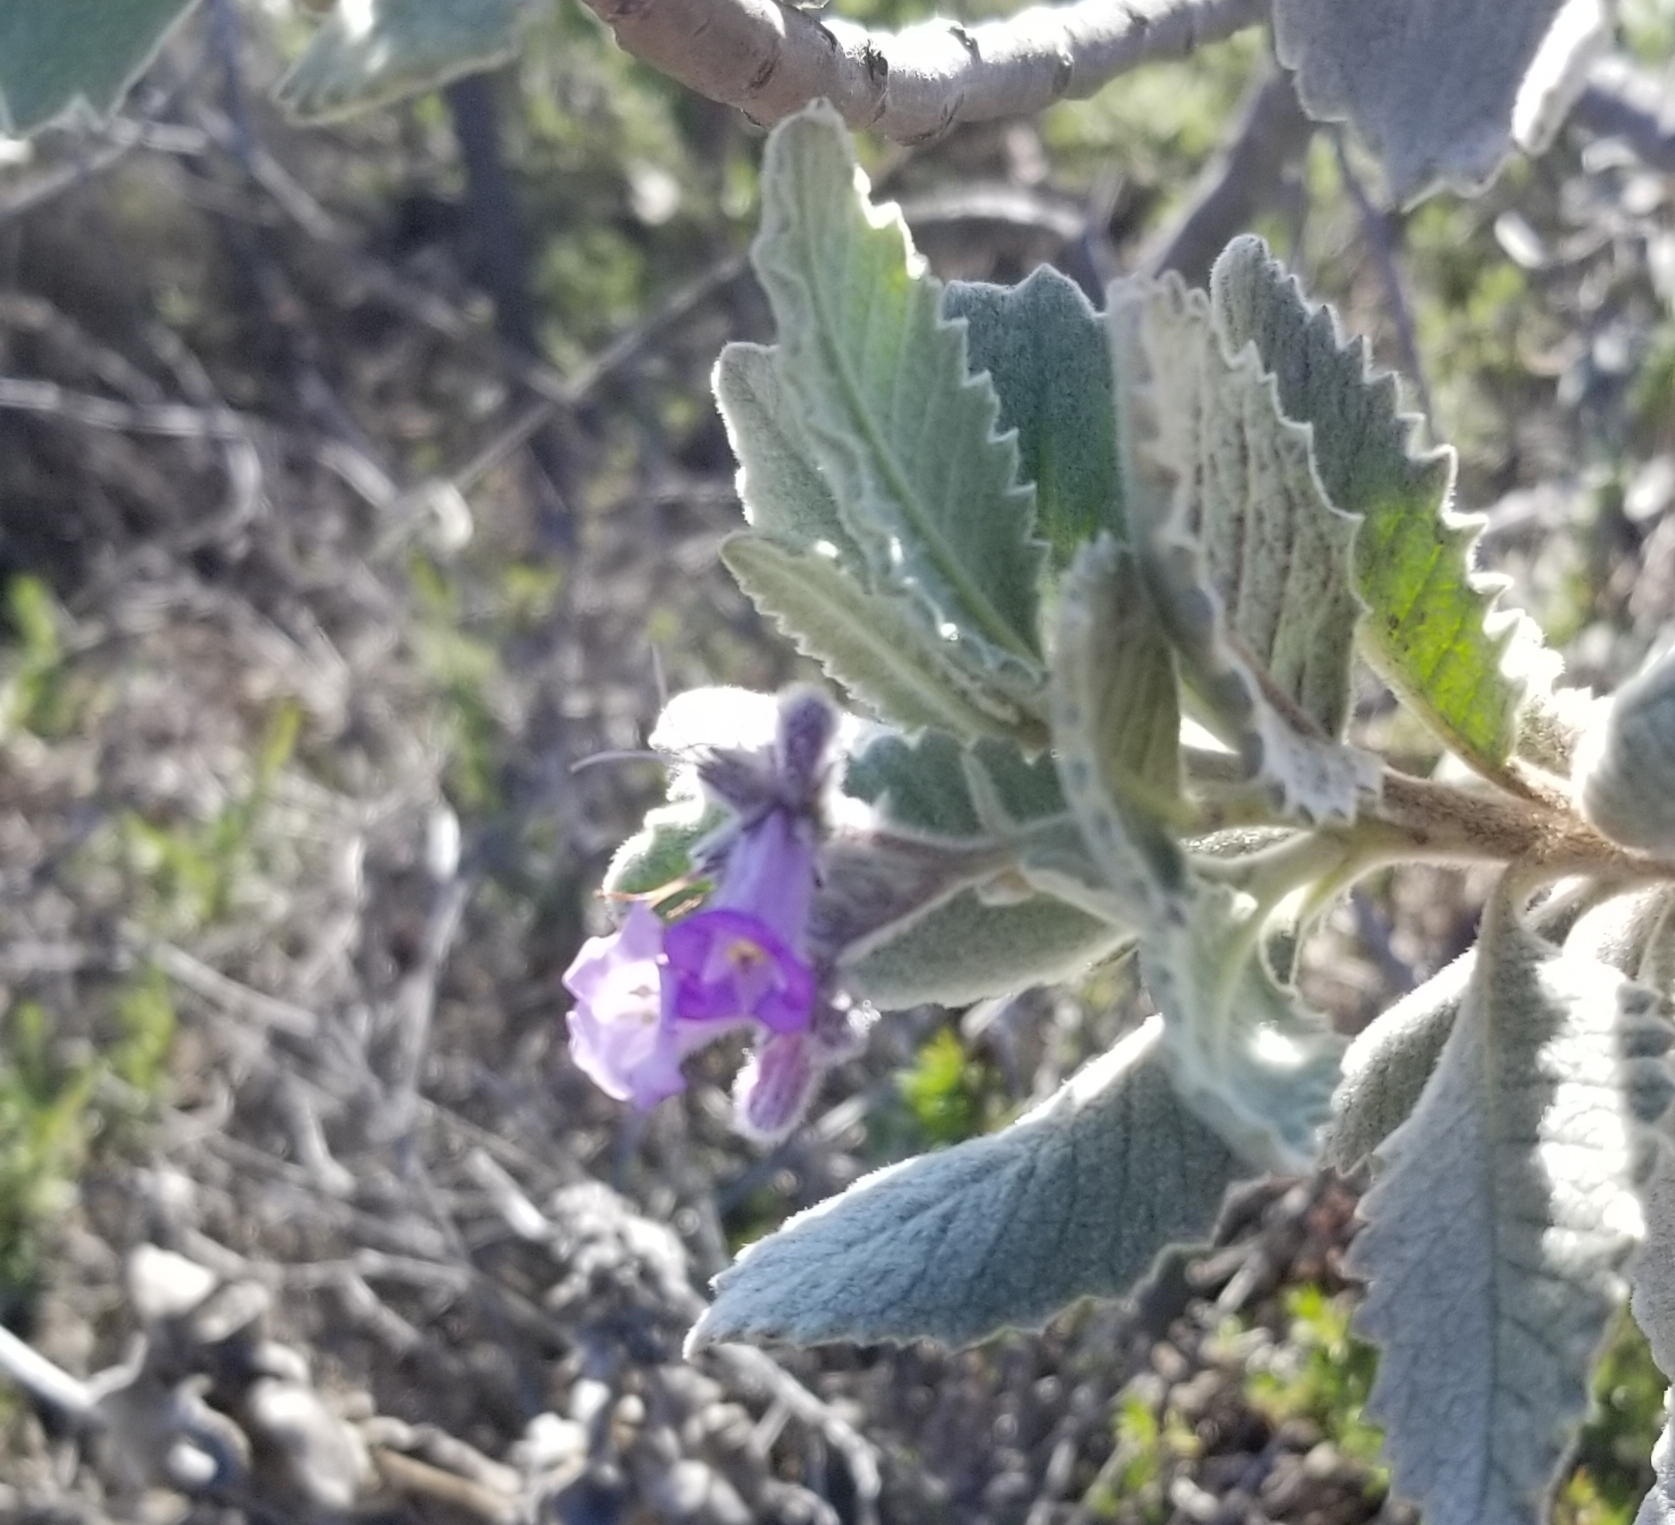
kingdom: Plantae
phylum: Tracheophyta
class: Magnoliopsida
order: Boraginales
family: Namaceae
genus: Eriodictyon
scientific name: Eriodictyon crassifolium
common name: Thick-leaf yerba-santa
